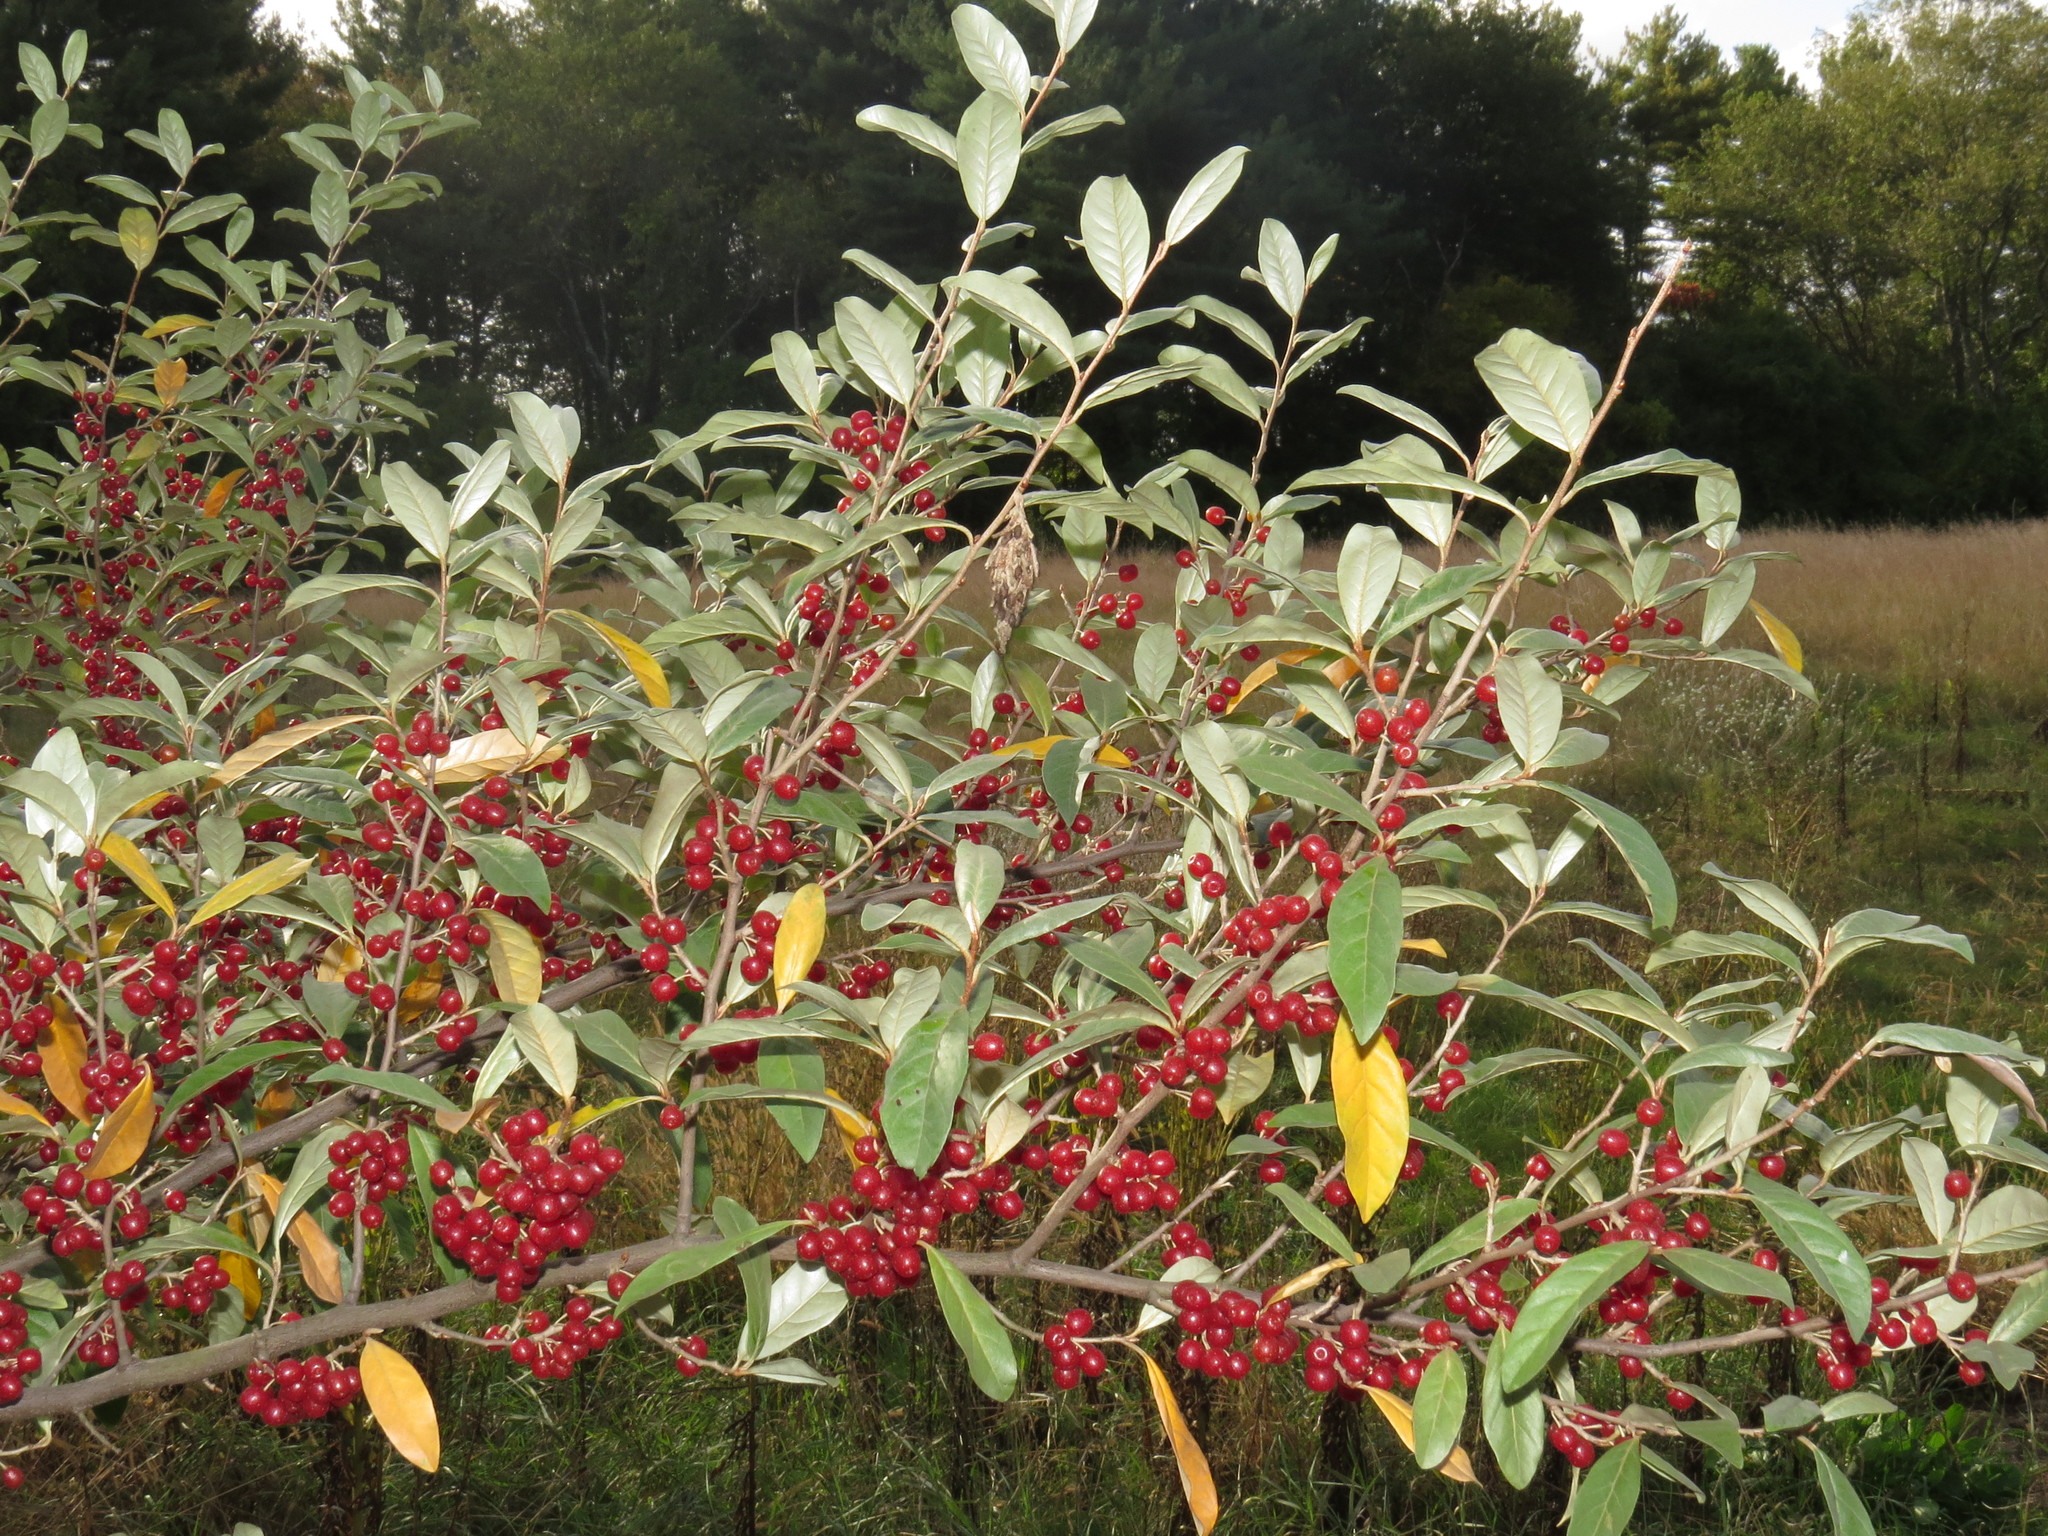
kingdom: Plantae
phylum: Tracheophyta
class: Magnoliopsida
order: Rosales
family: Elaeagnaceae
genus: Elaeagnus
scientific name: Elaeagnus umbellata
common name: Autumn olive
